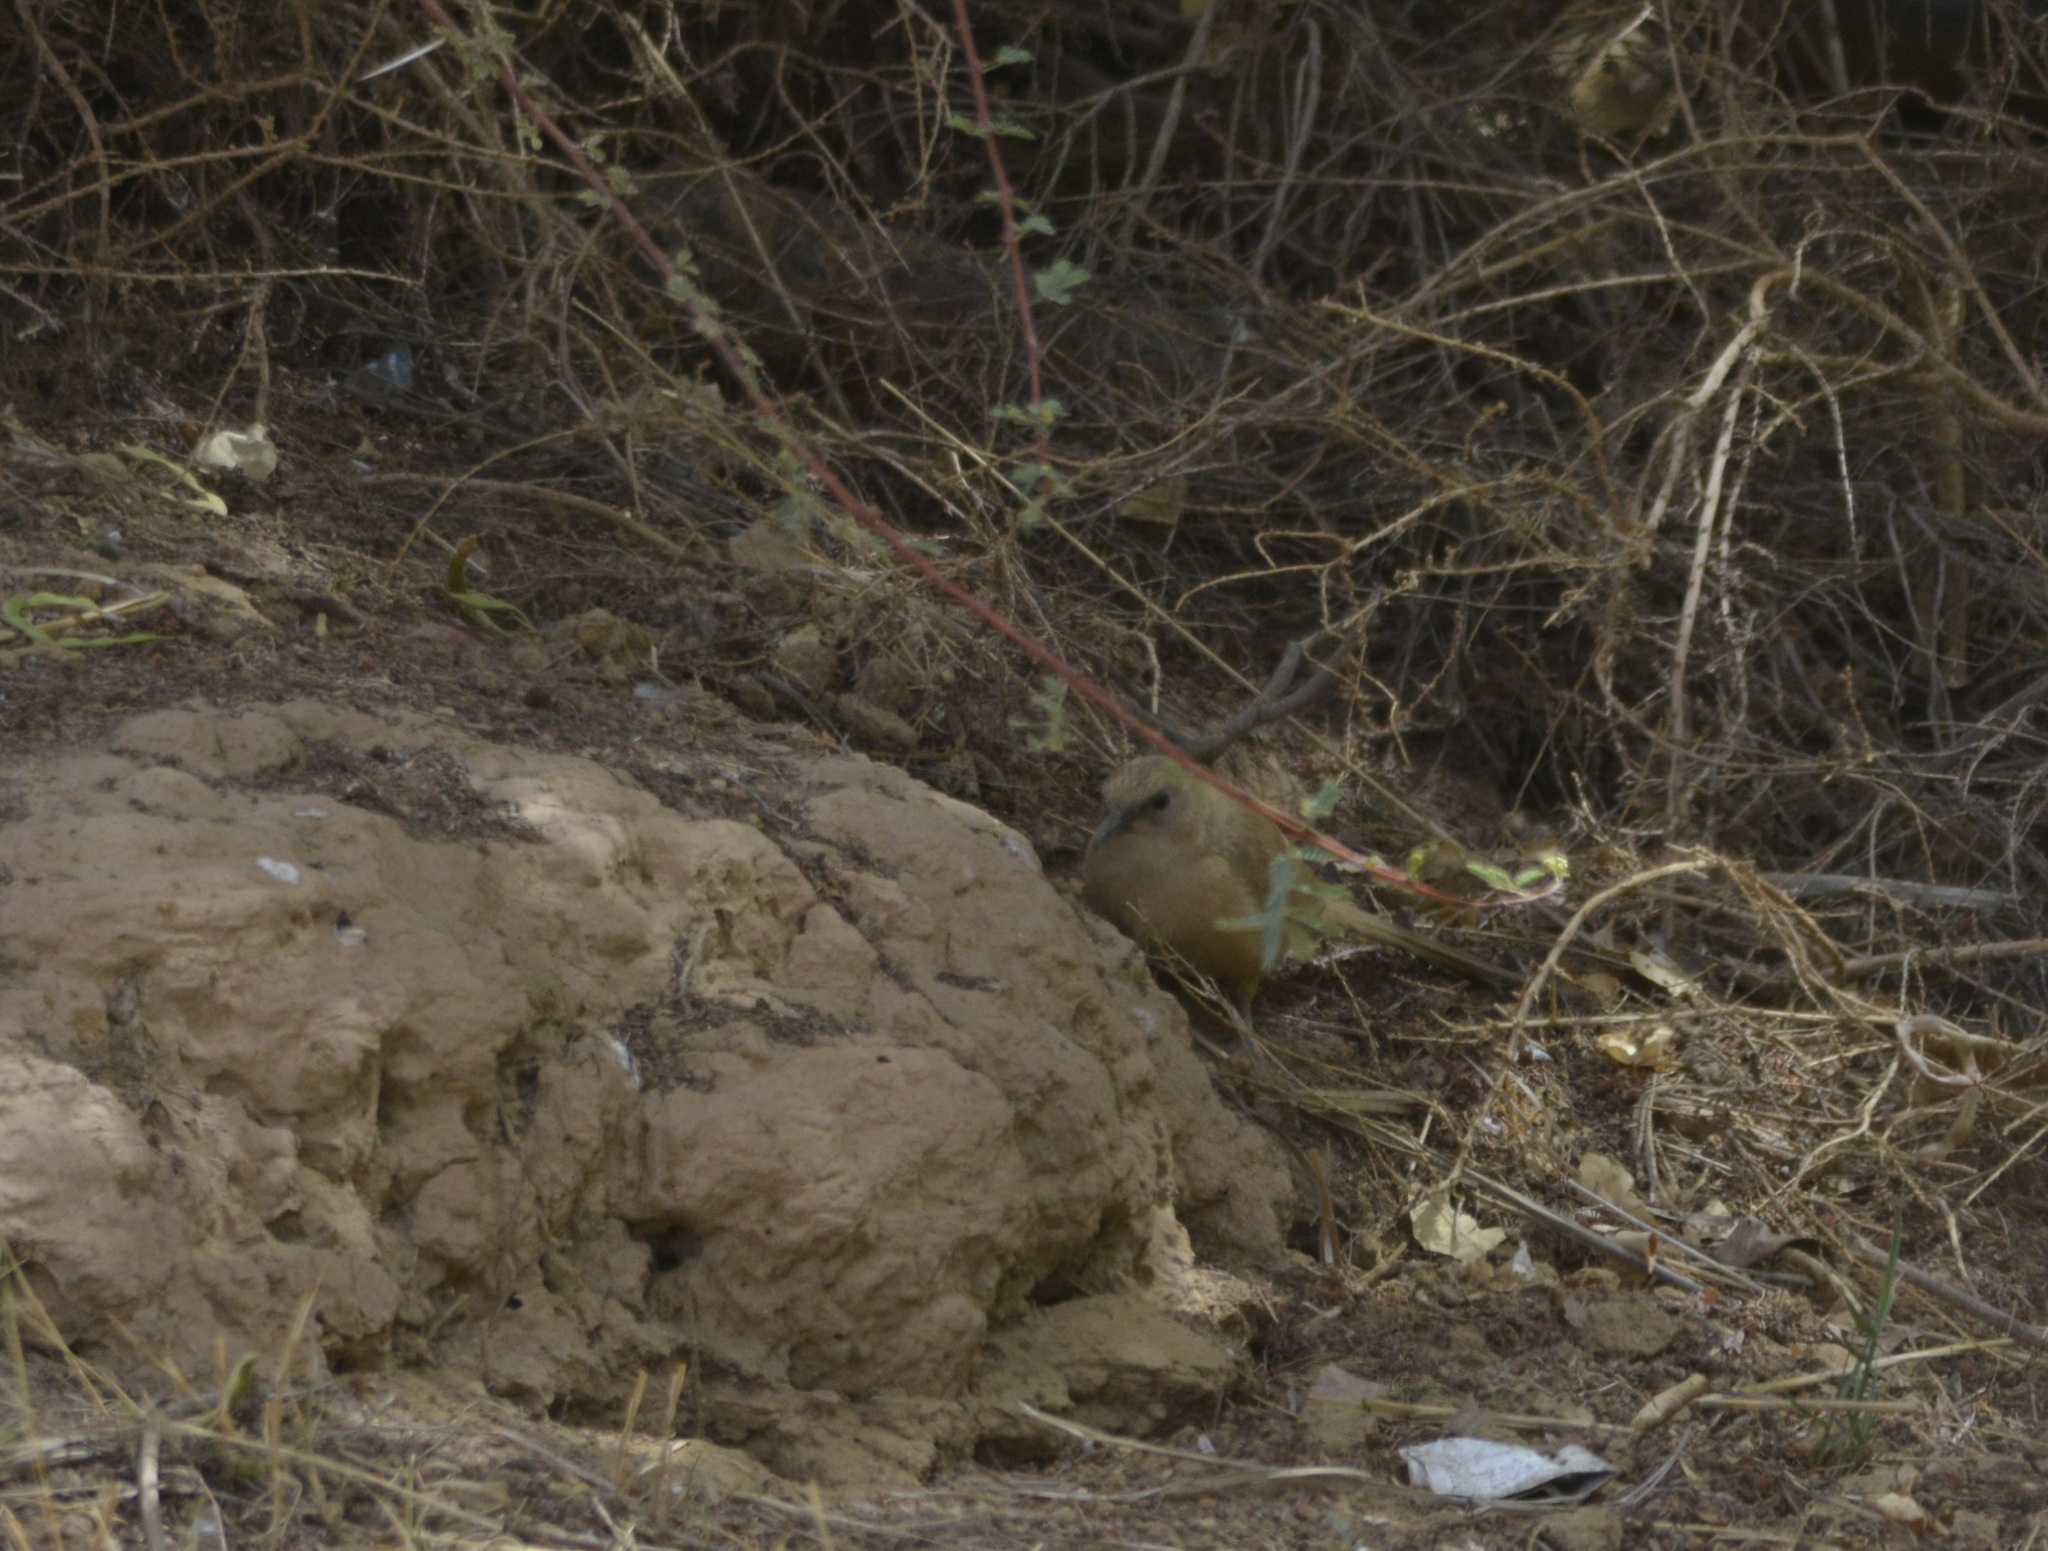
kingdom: Animalia
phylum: Chordata
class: Aves
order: Passeriformes
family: Leiothrichidae
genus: Turdoides
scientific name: Turdoides fulva
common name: Fulvous babbler
